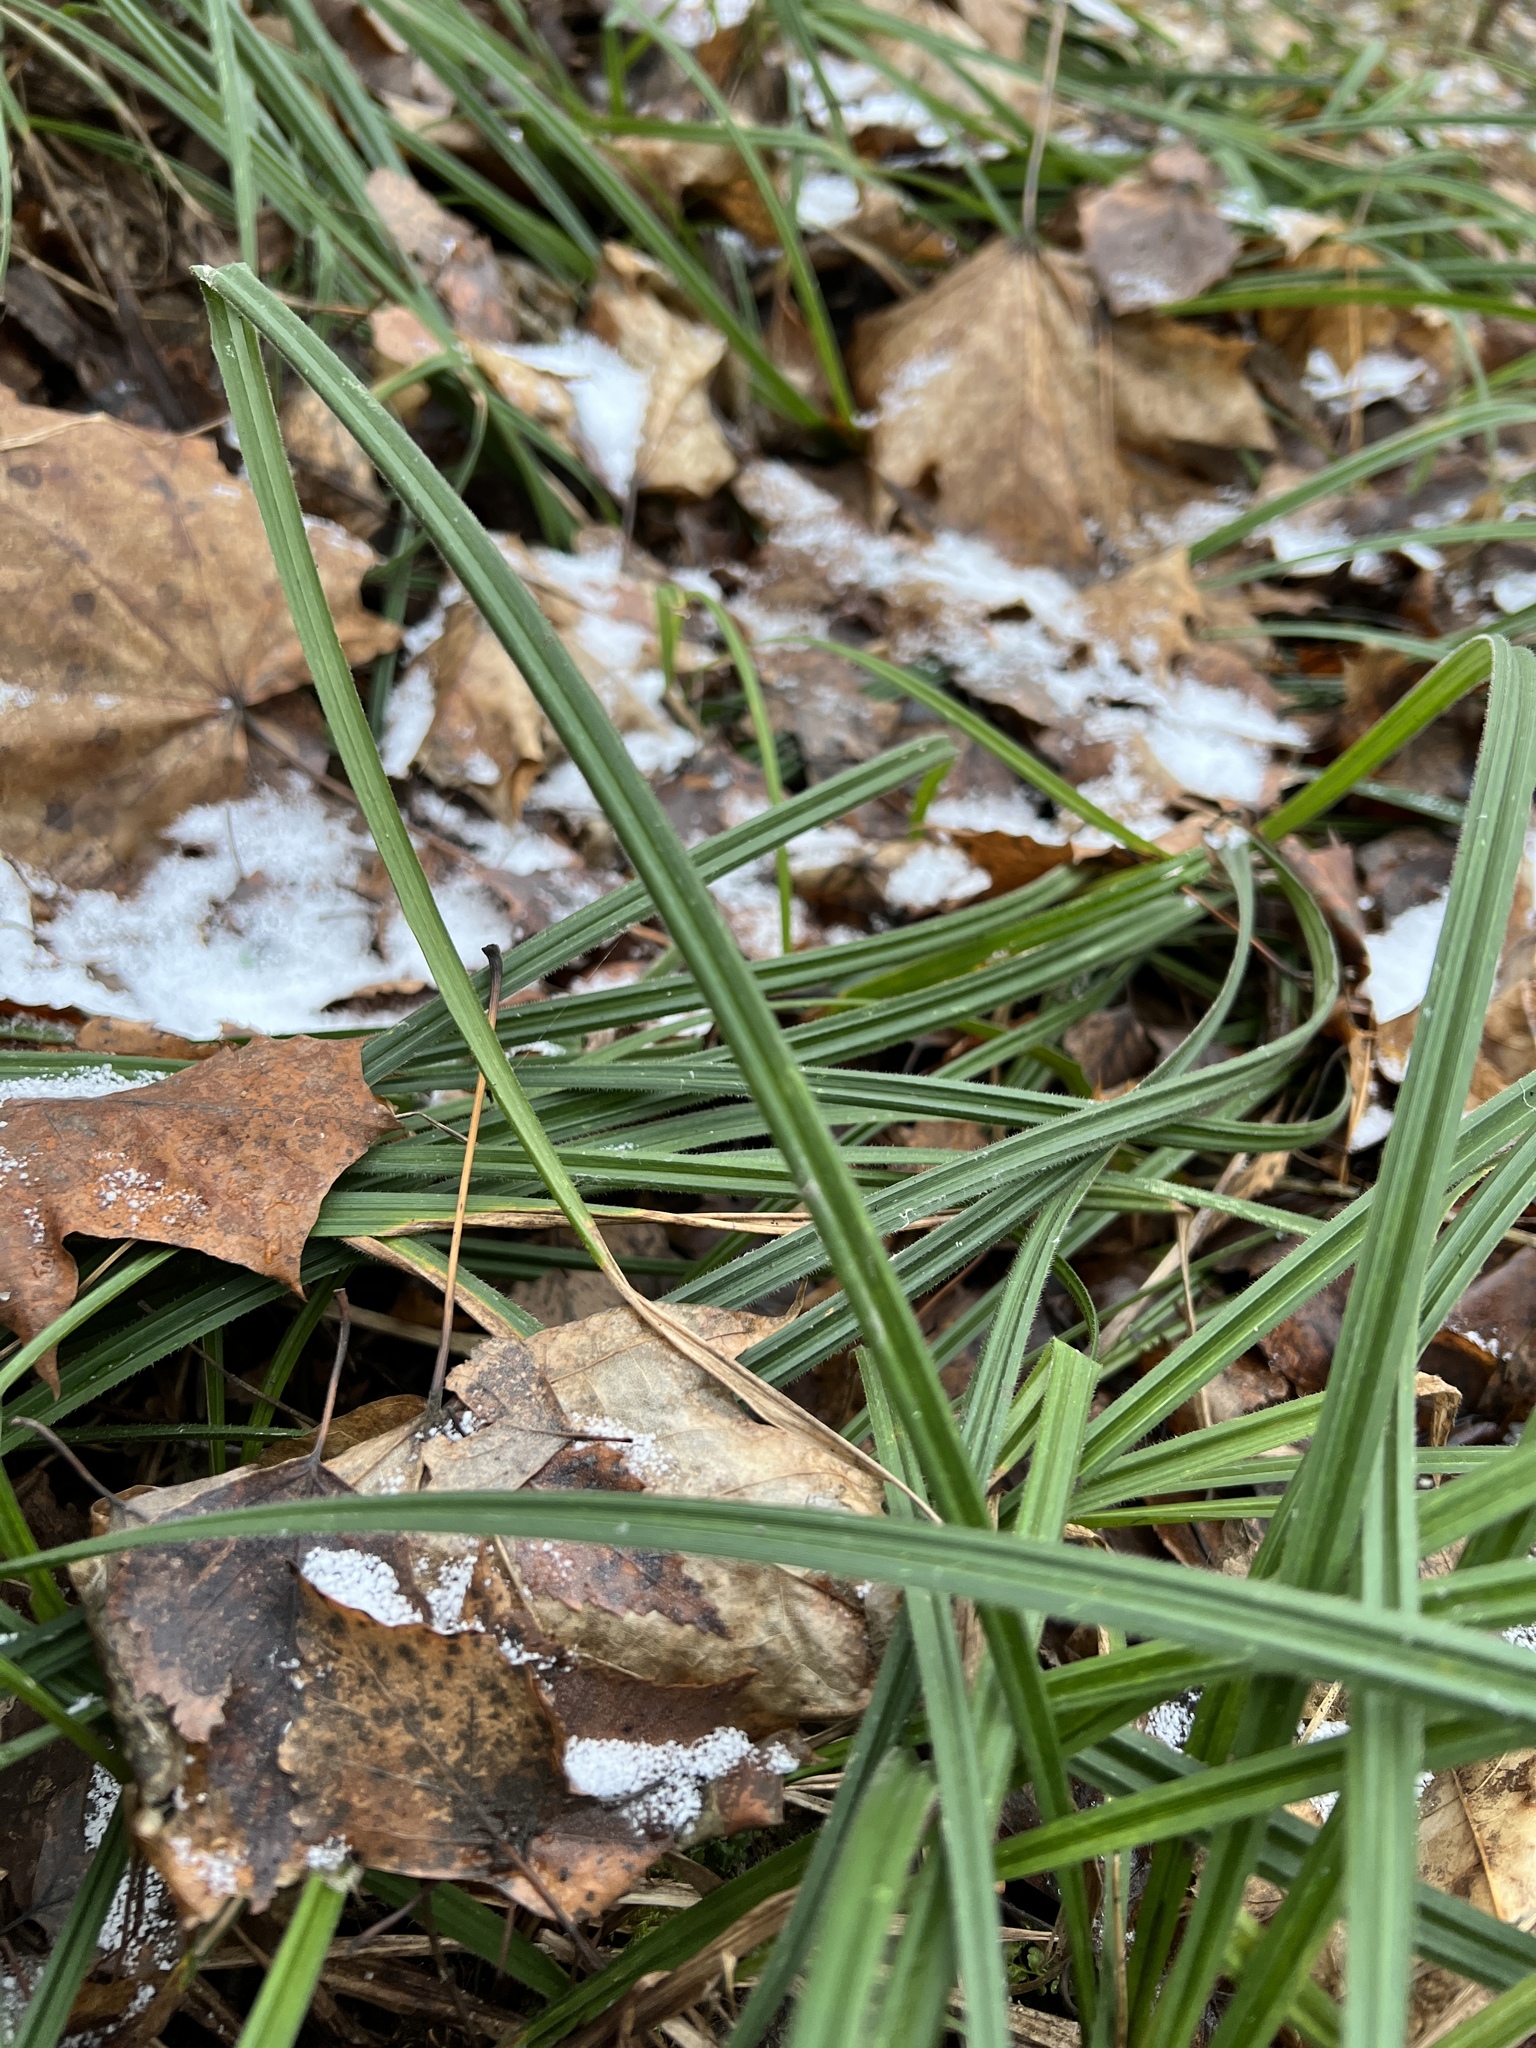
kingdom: Plantae
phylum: Tracheophyta
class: Liliopsida
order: Poales
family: Cyperaceae
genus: Carex
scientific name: Carex pilosa
